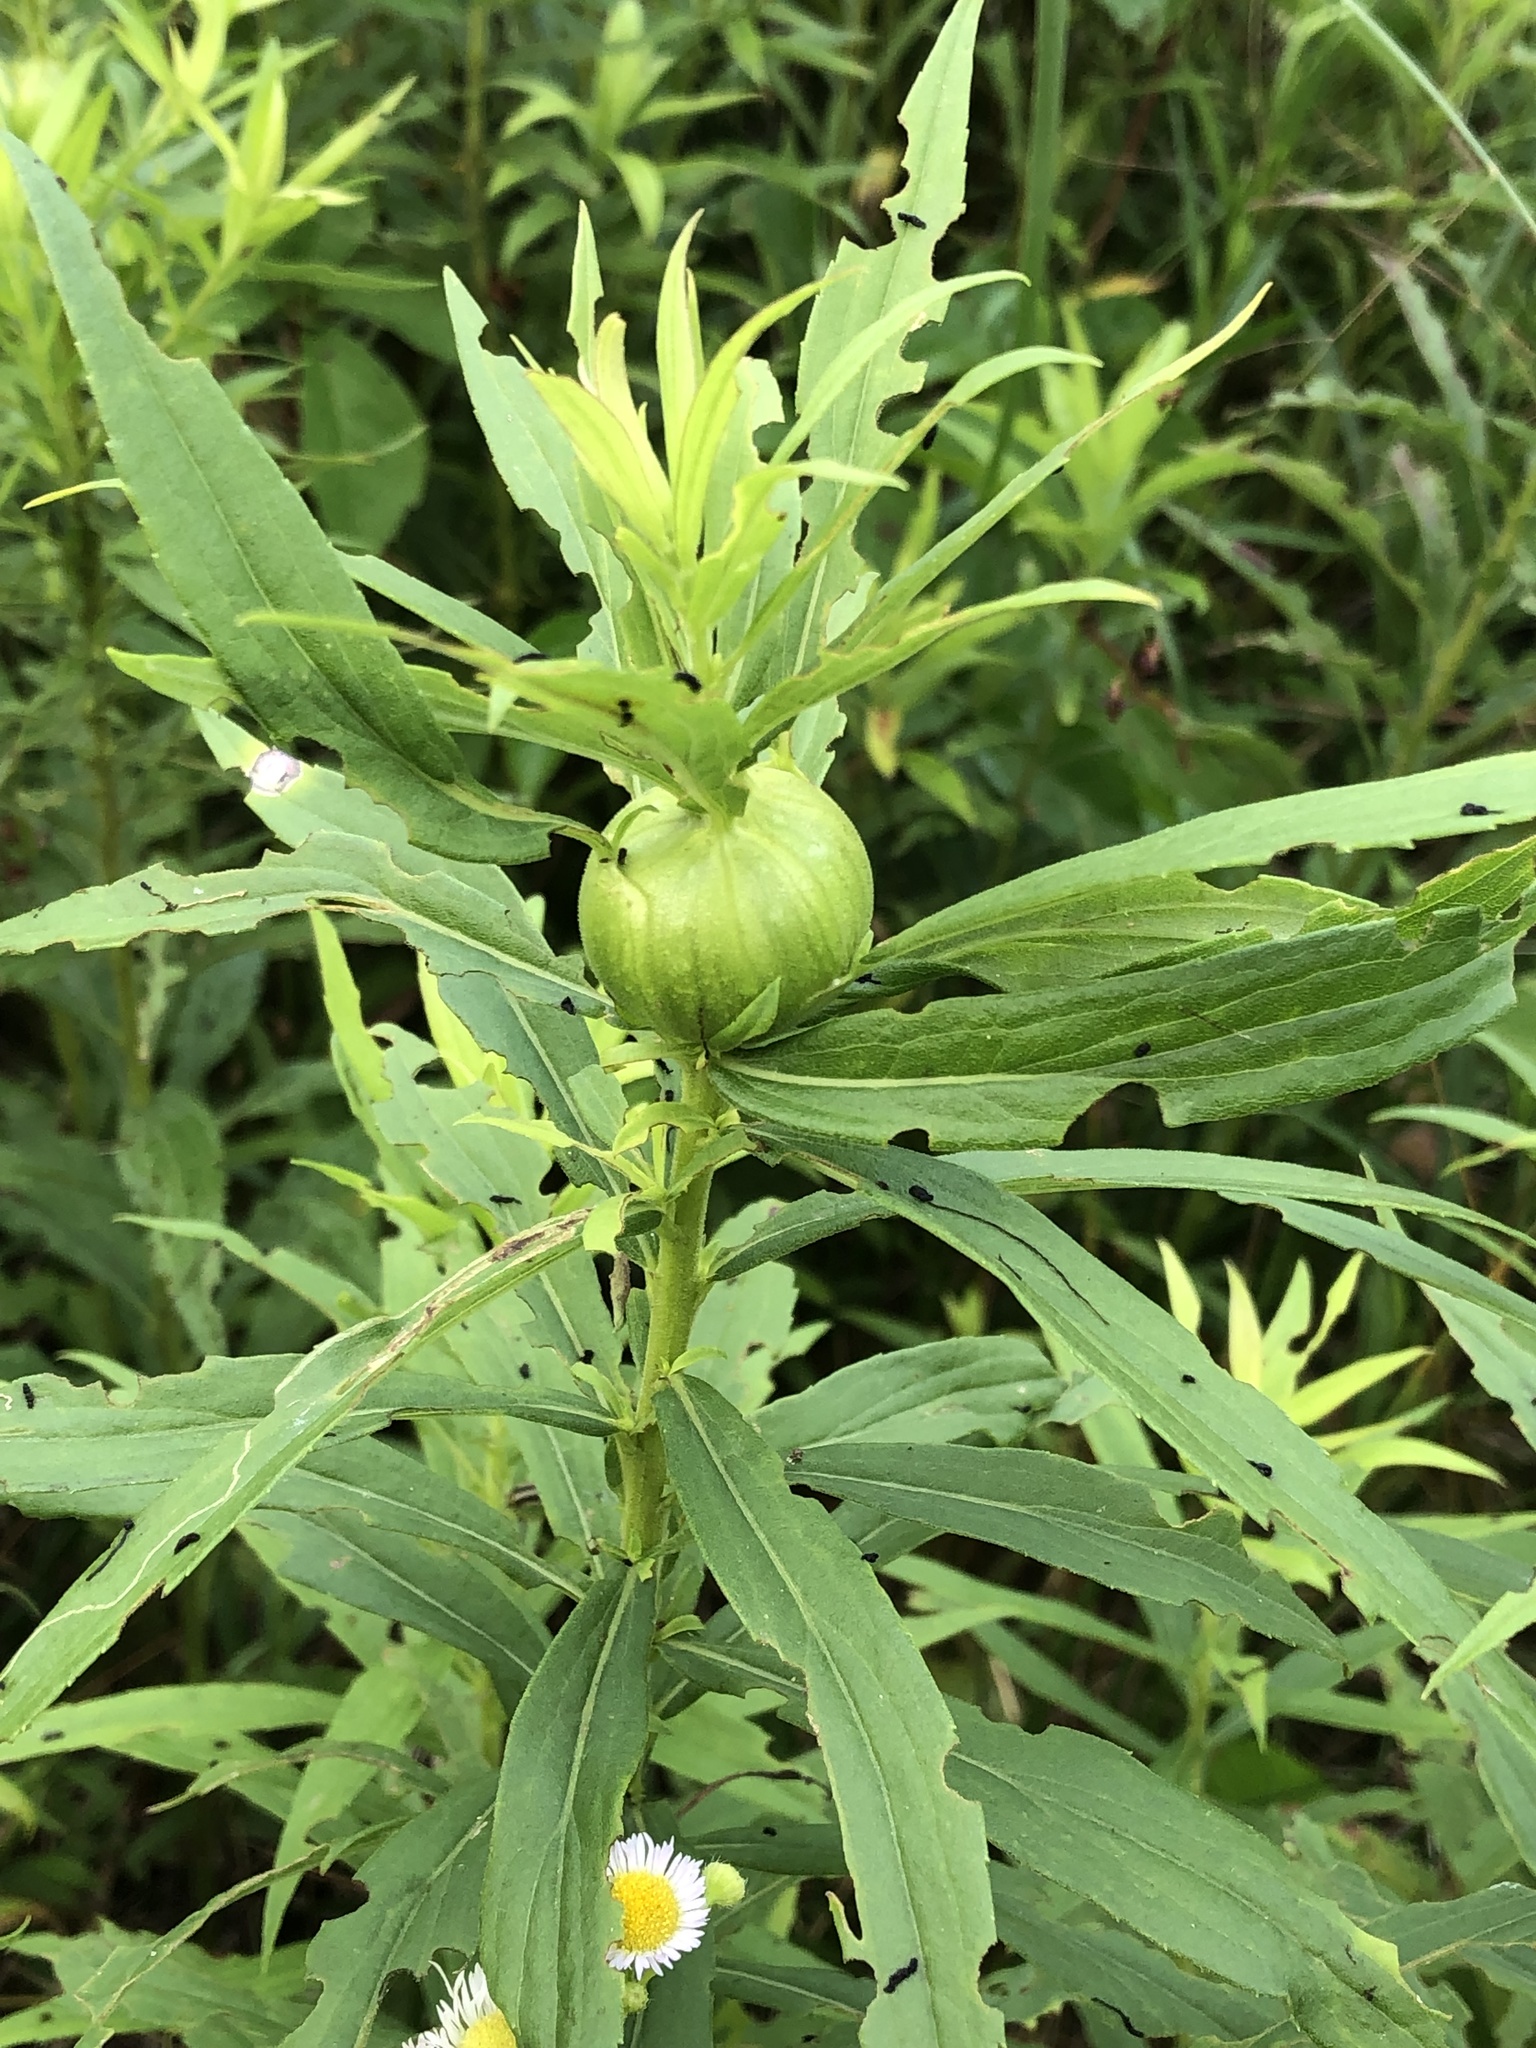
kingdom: Animalia
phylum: Arthropoda
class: Insecta
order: Diptera
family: Tephritidae
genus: Eurosta
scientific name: Eurosta solidaginis
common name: Goldenrod gall fly
